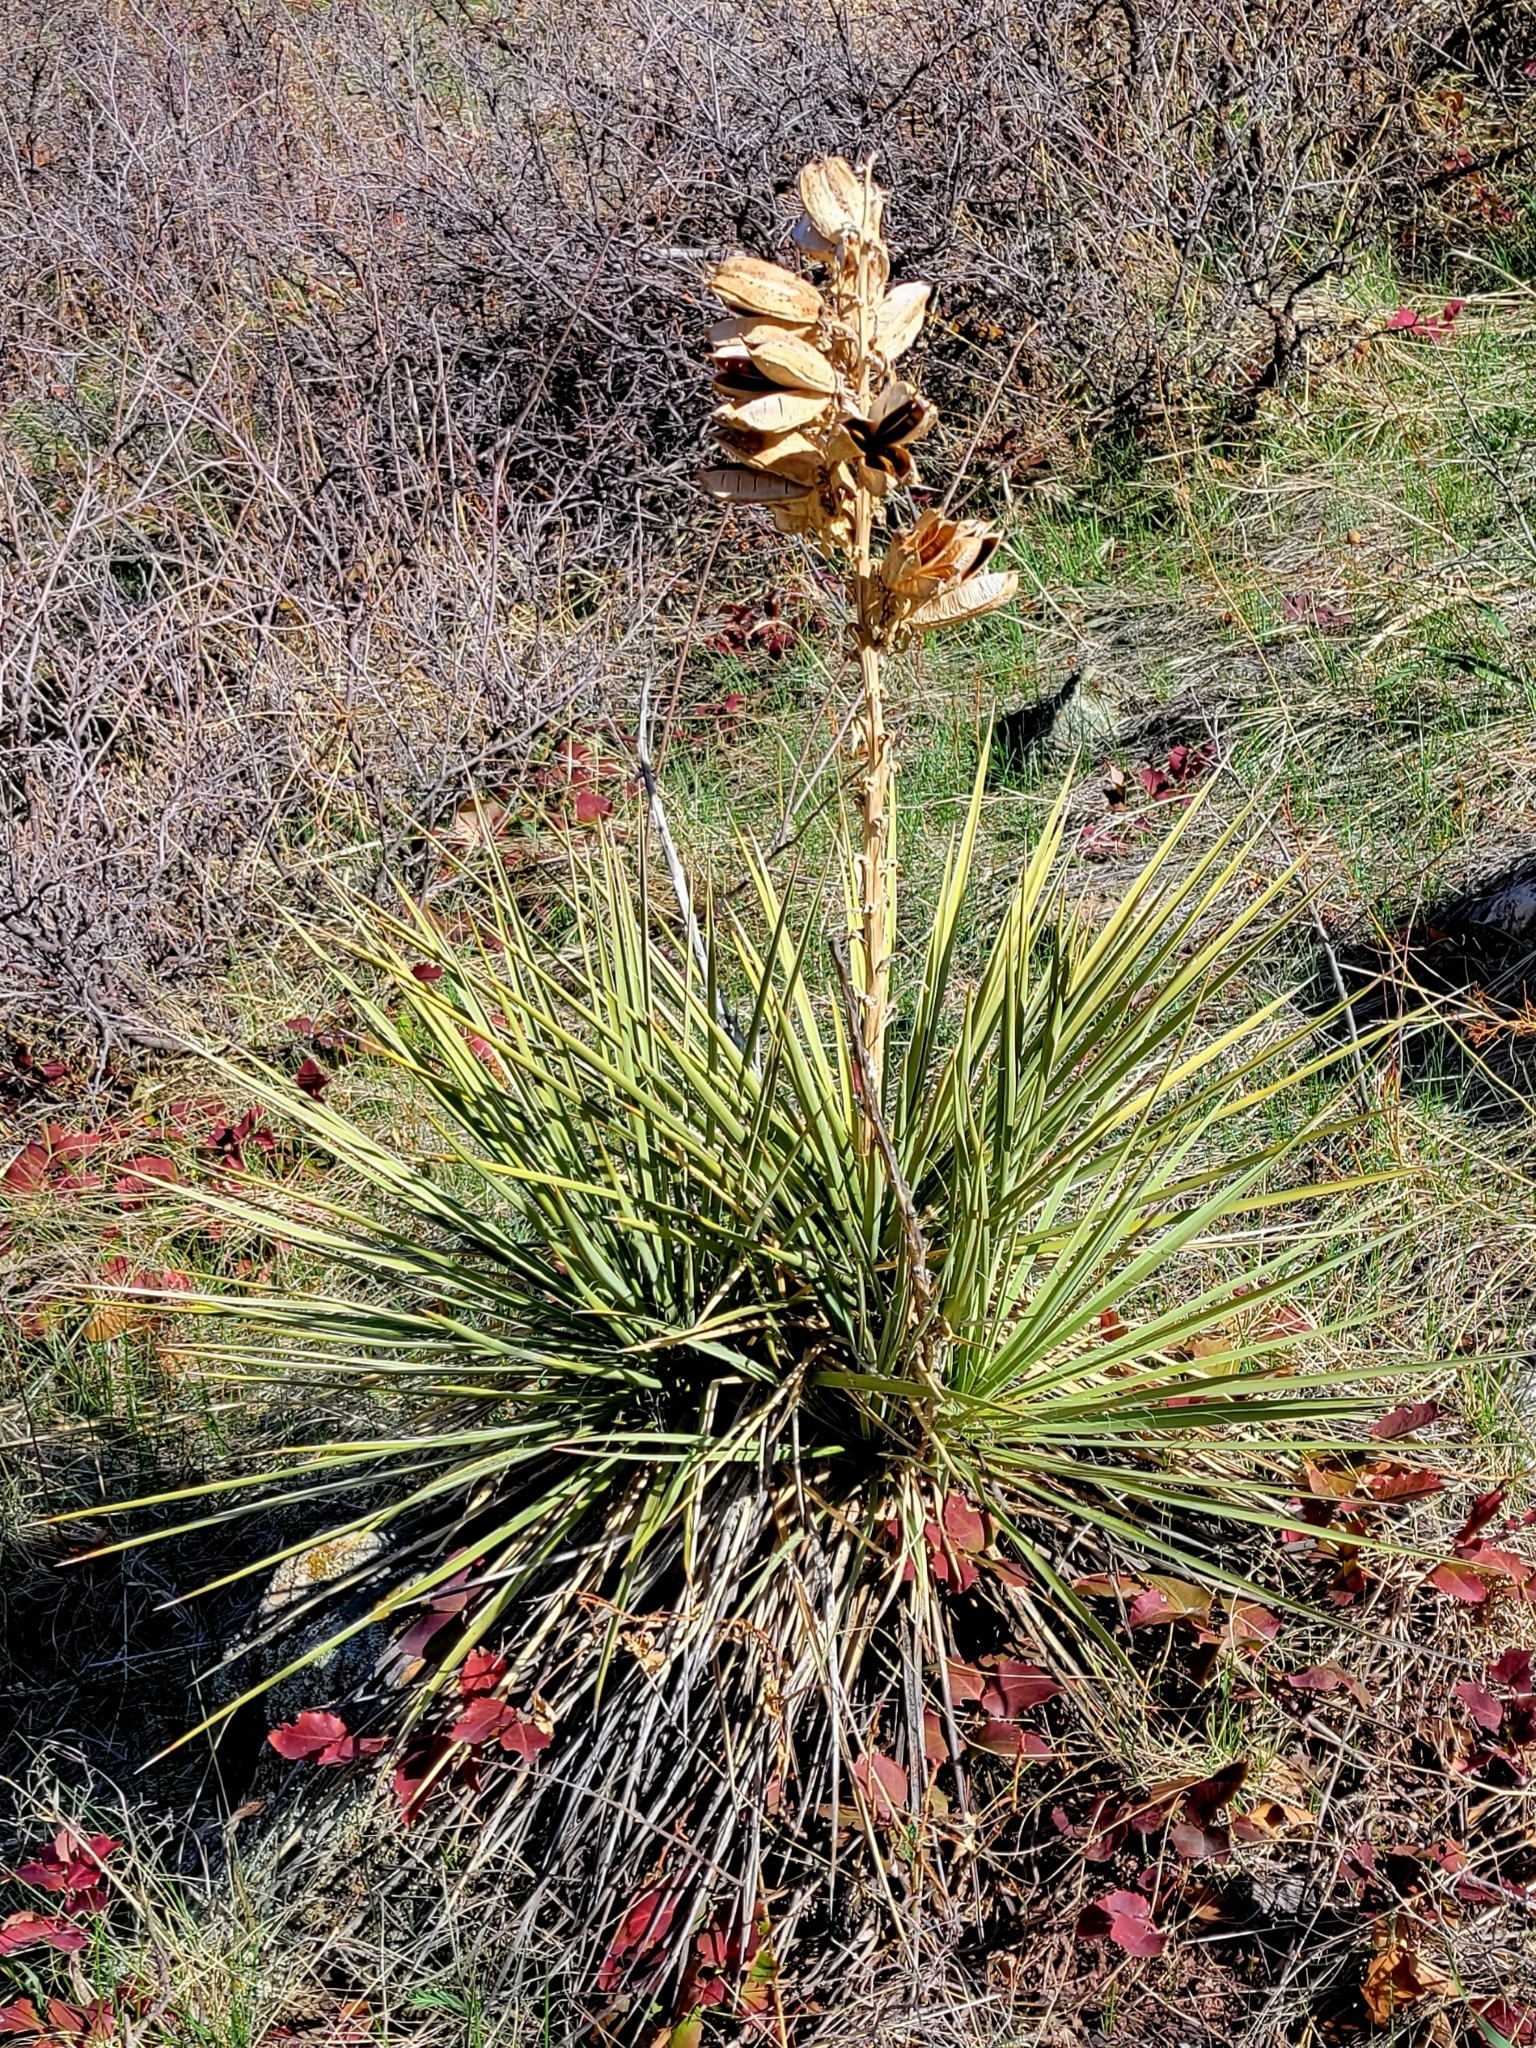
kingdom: Plantae
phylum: Tracheophyta
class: Liliopsida
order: Asparagales
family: Asparagaceae
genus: Yucca
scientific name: Yucca glauca
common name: Great plains yucca
